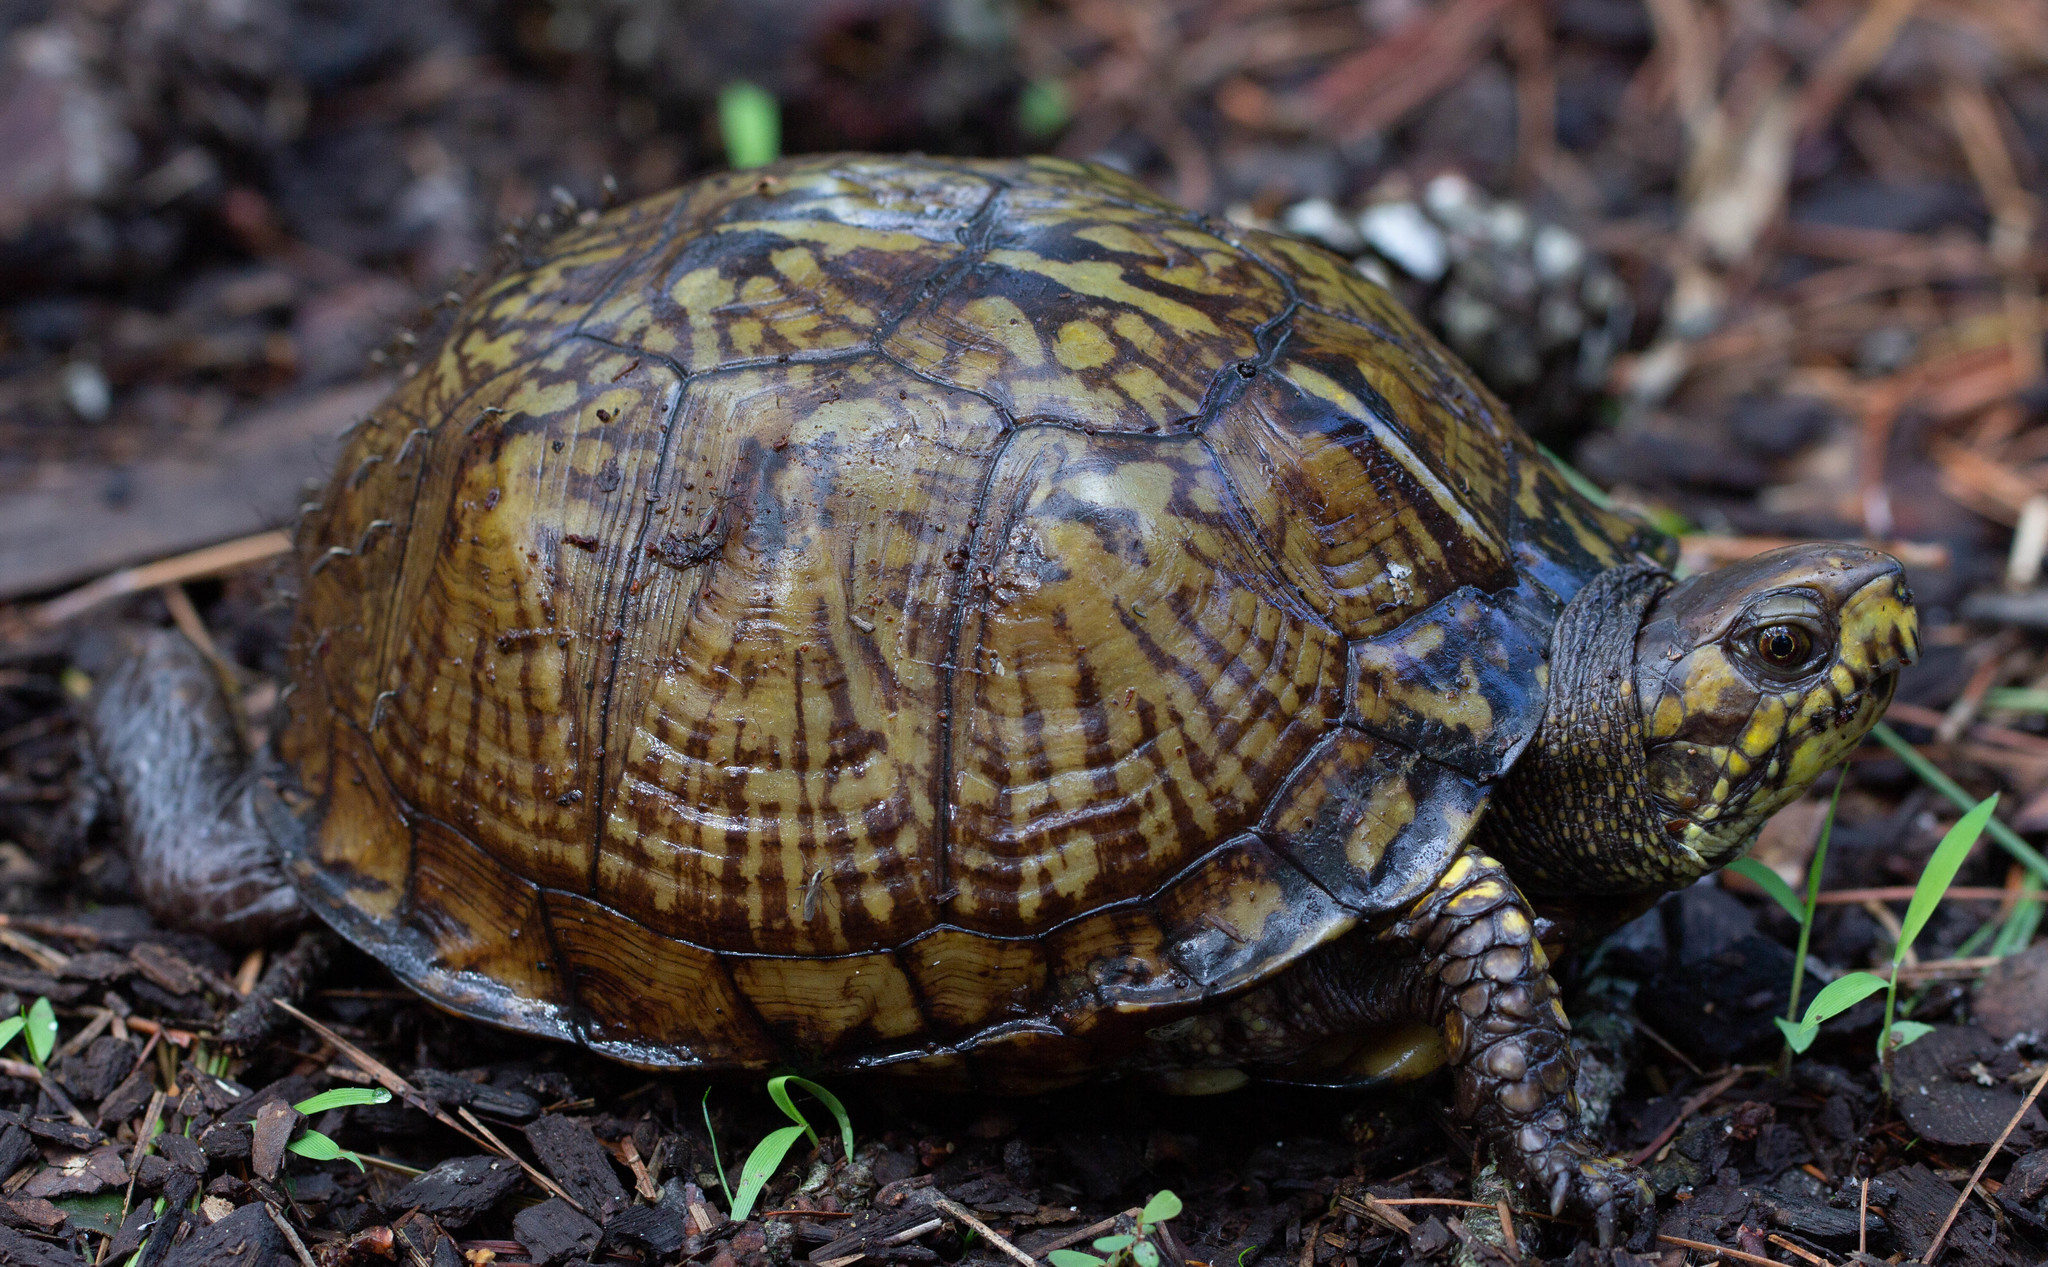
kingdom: Animalia
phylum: Chordata
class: Testudines
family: Emydidae
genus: Terrapene
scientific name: Terrapene carolina
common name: Common box turtle
